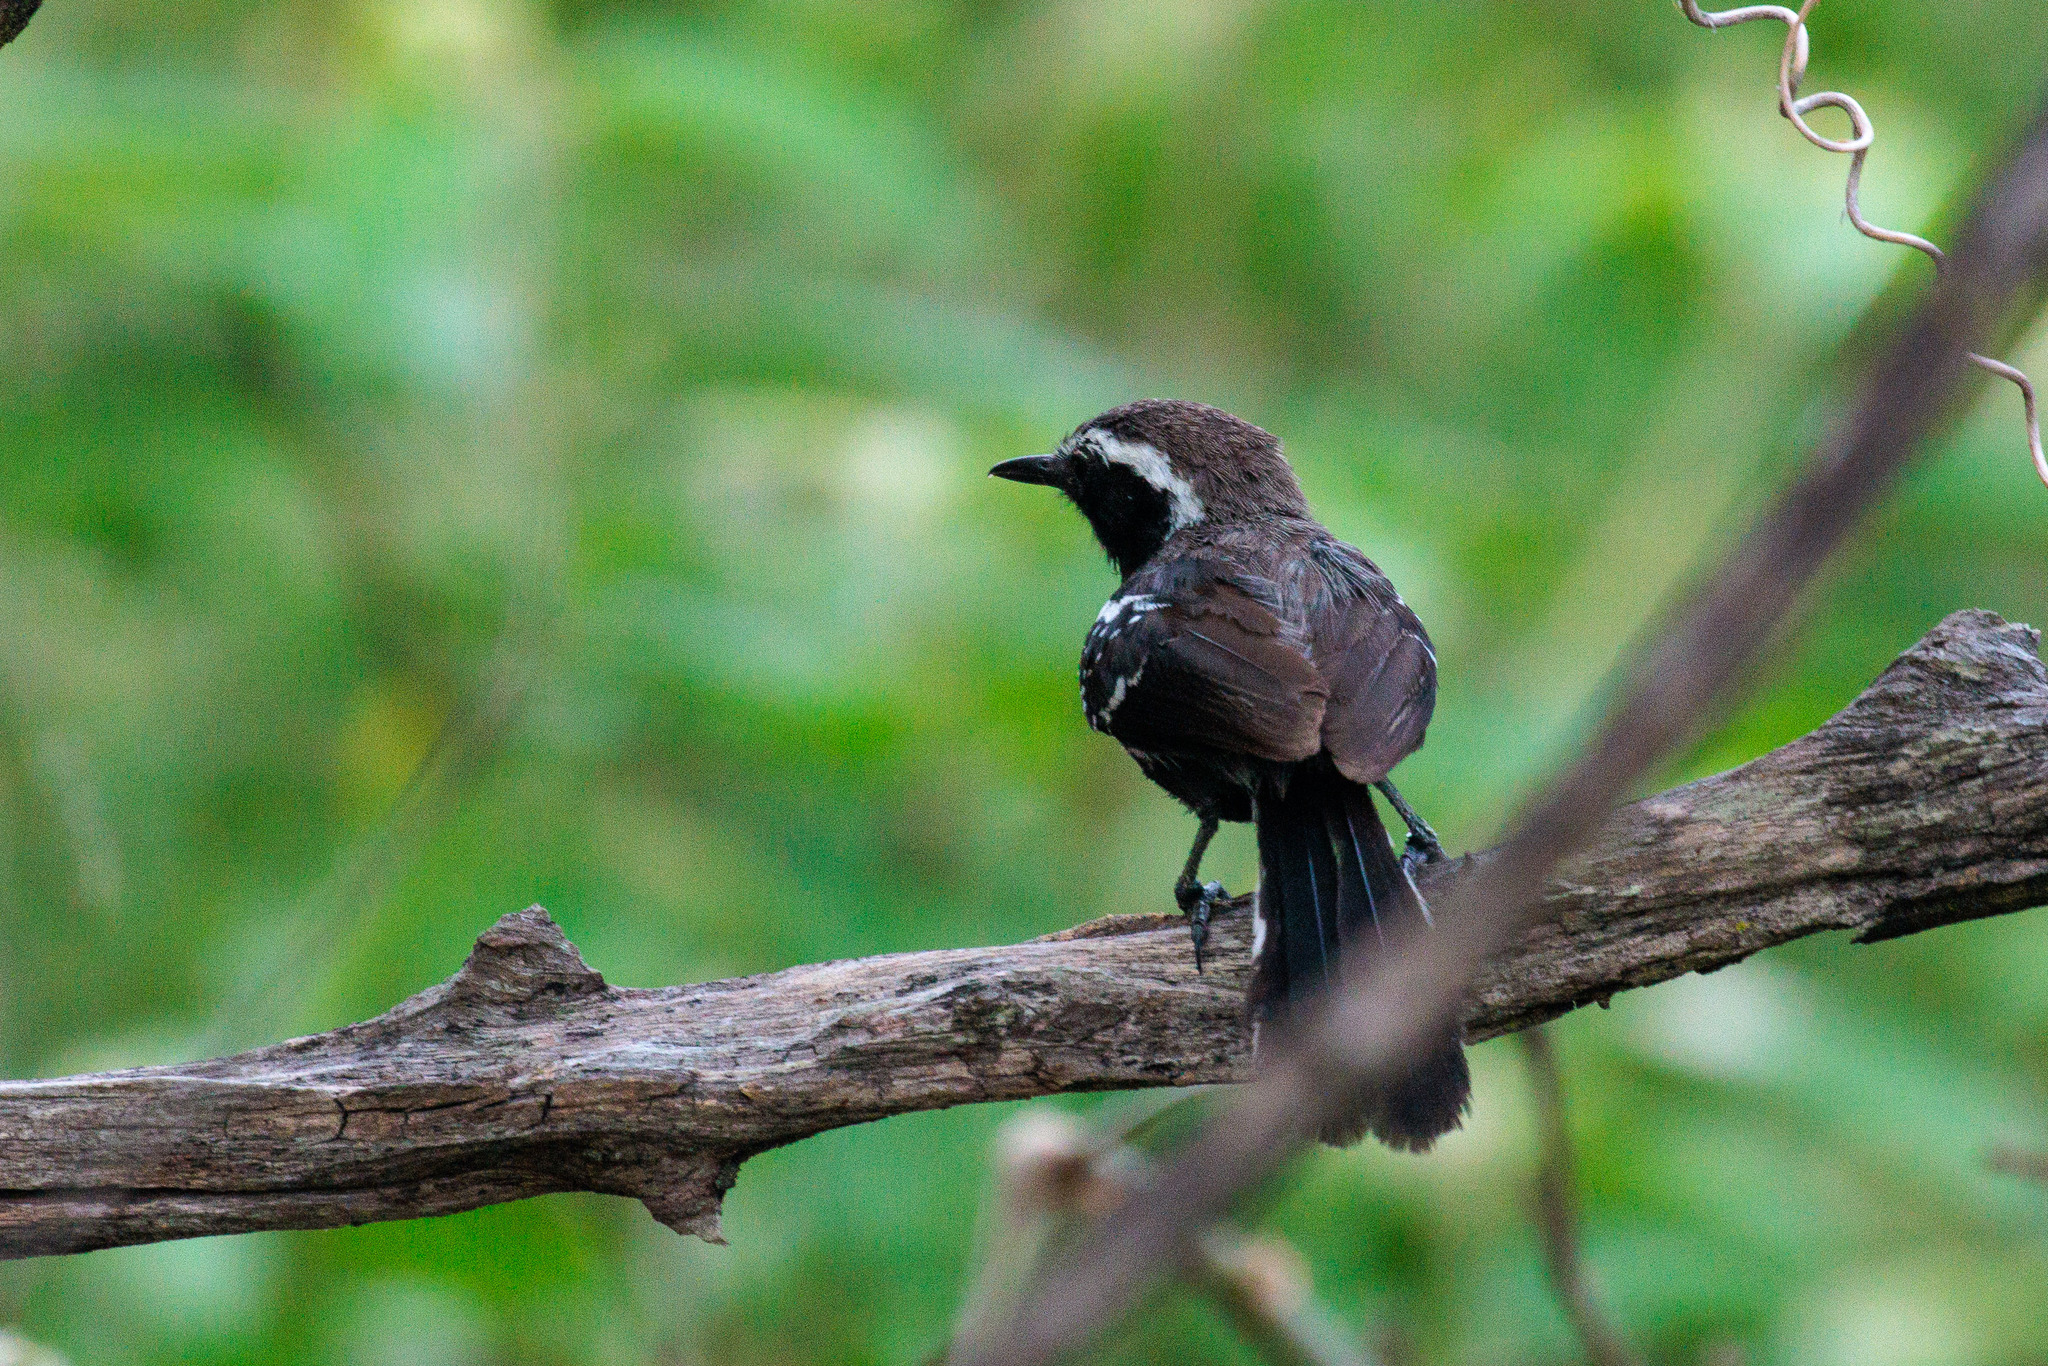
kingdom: Animalia
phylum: Chordata
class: Aves
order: Passeriformes
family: Thamnophilidae
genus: Formicivora
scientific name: Formicivora melanogaster
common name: Black-bellied antwren
